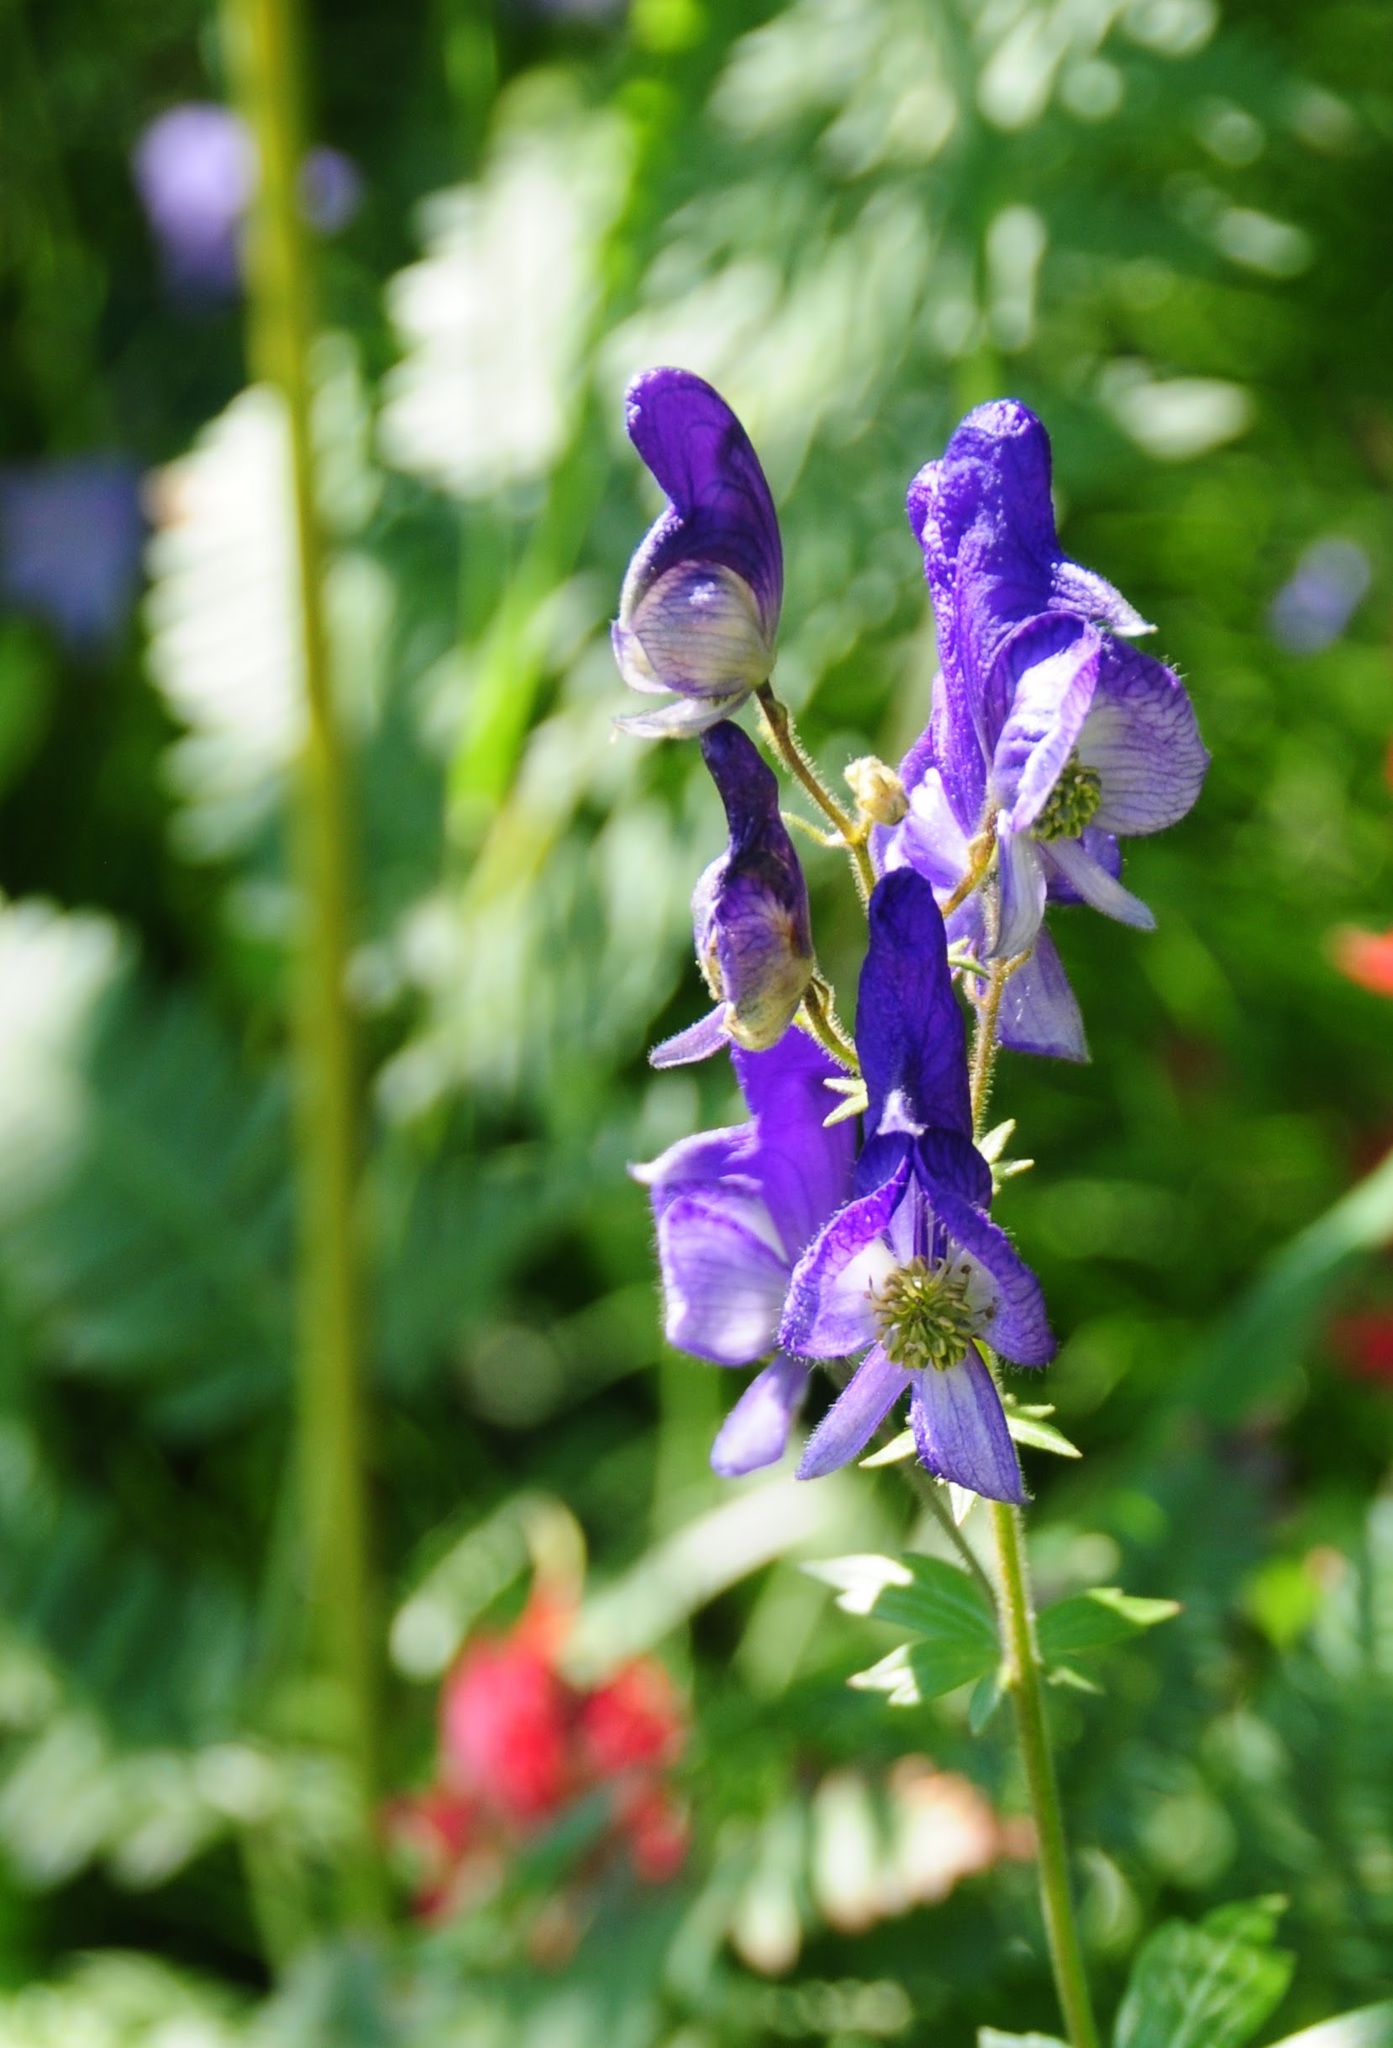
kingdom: Plantae
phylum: Tracheophyta
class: Magnoliopsida
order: Ranunculales
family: Ranunculaceae
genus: Aconitum
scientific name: Aconitum columbianum
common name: Columbia aconite
